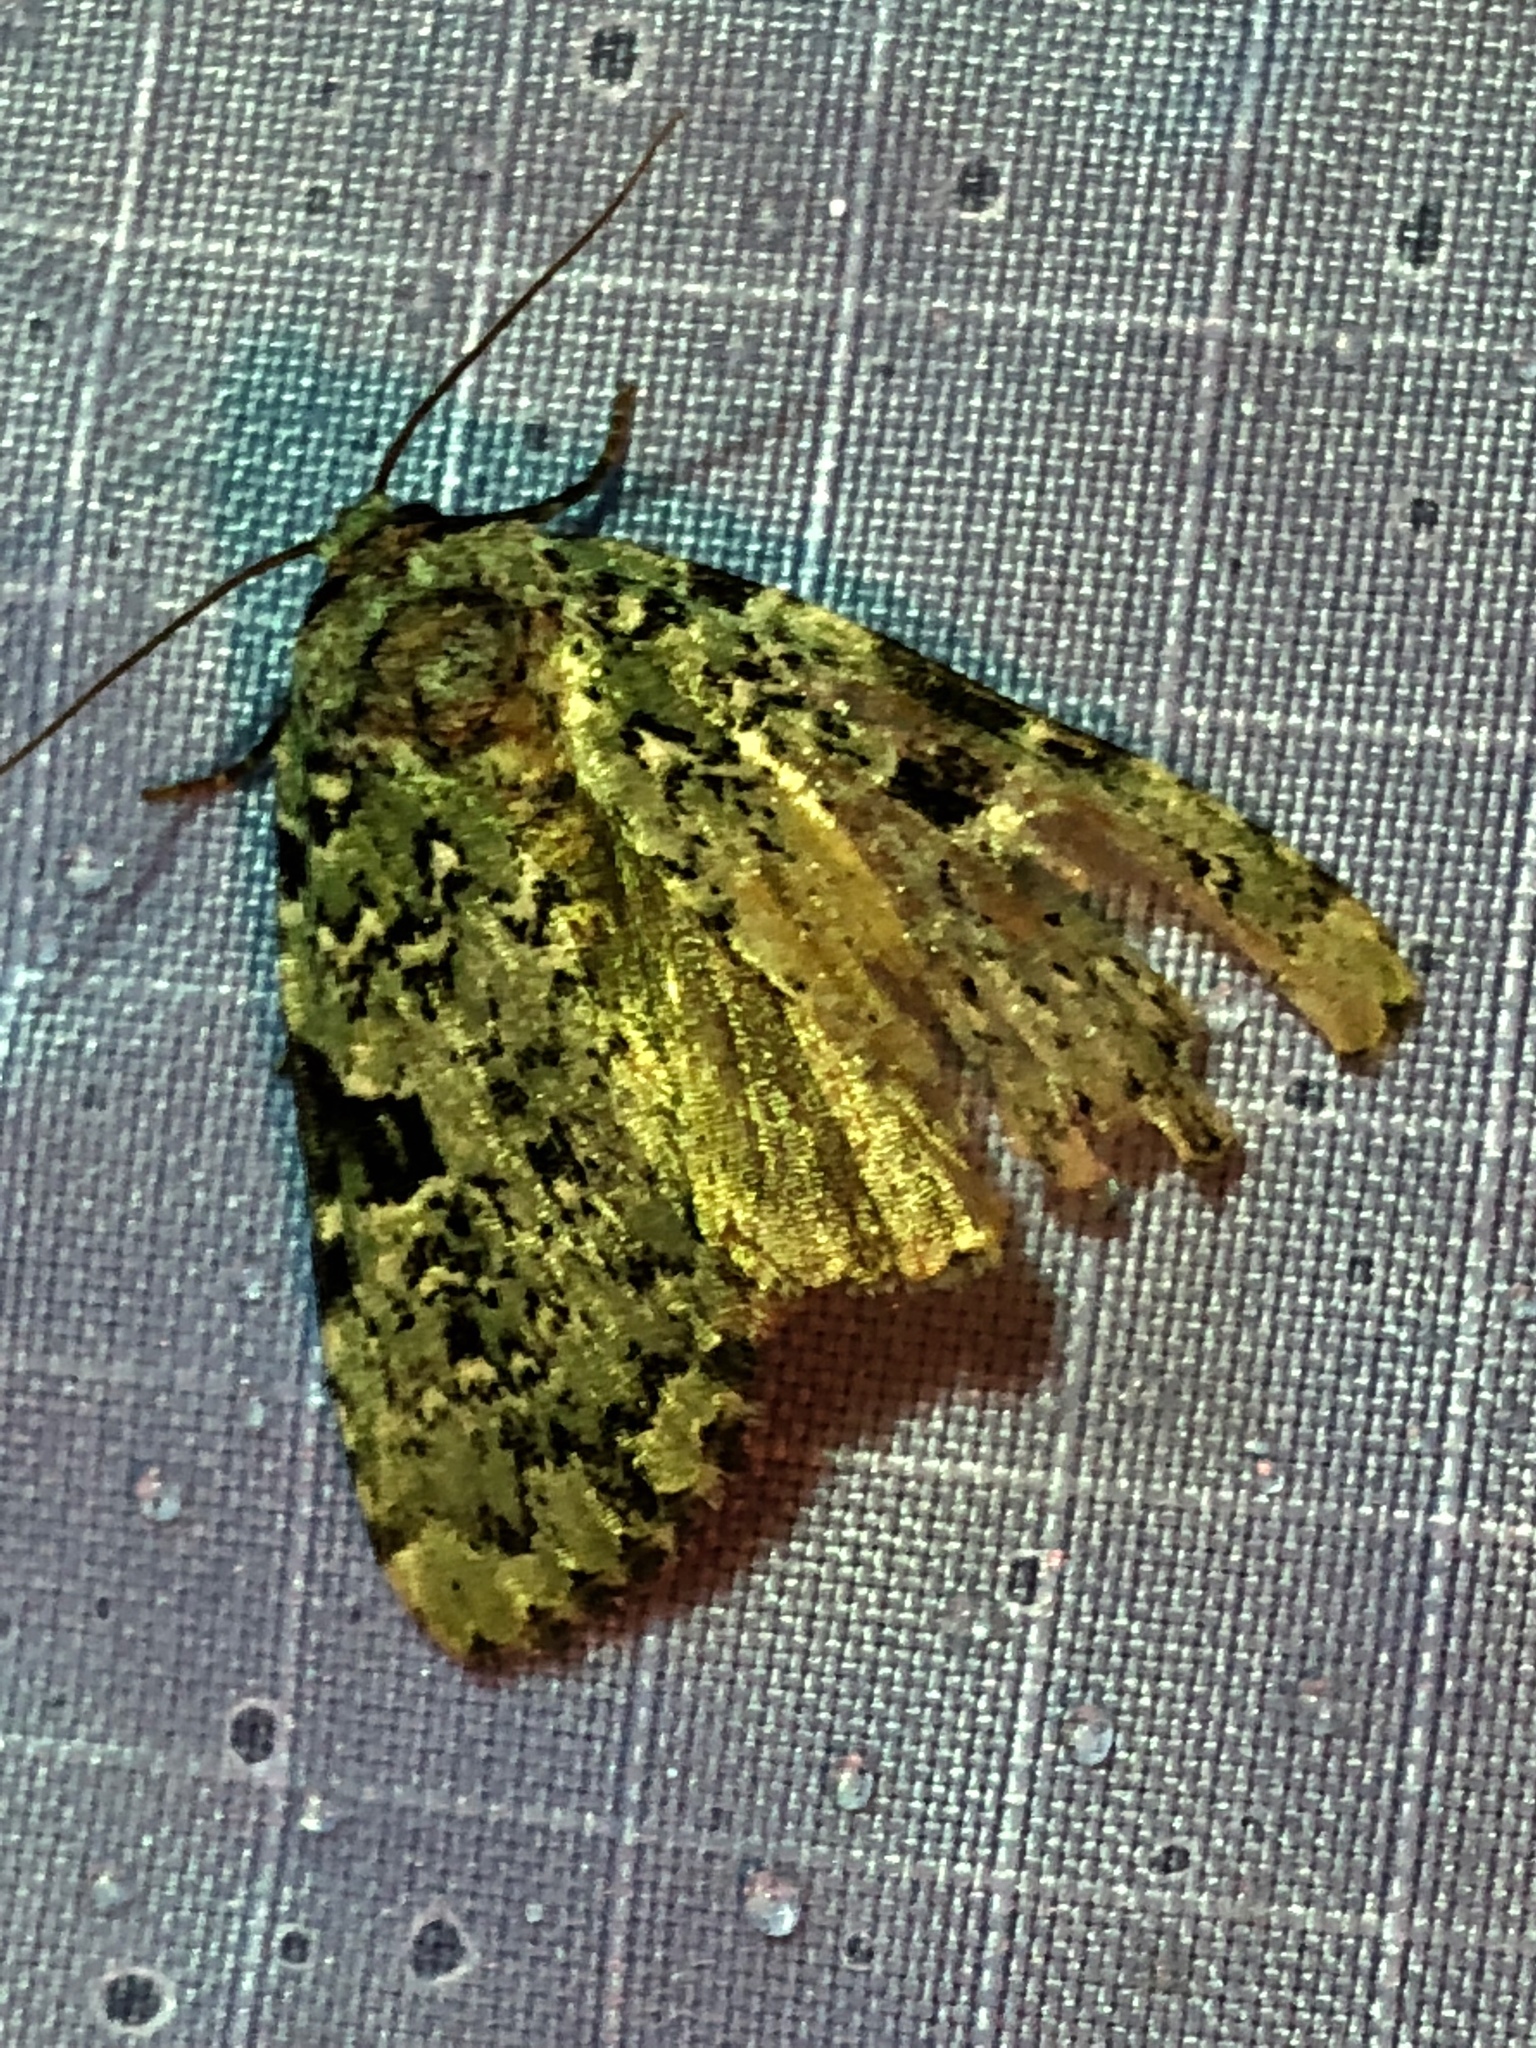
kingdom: Animalia
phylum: Arthropoda
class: Insecta
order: Lepidoptera
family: Noctuidae
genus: Leuconycta
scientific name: Leuconycta diphteroides
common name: Green leuconycta moth
